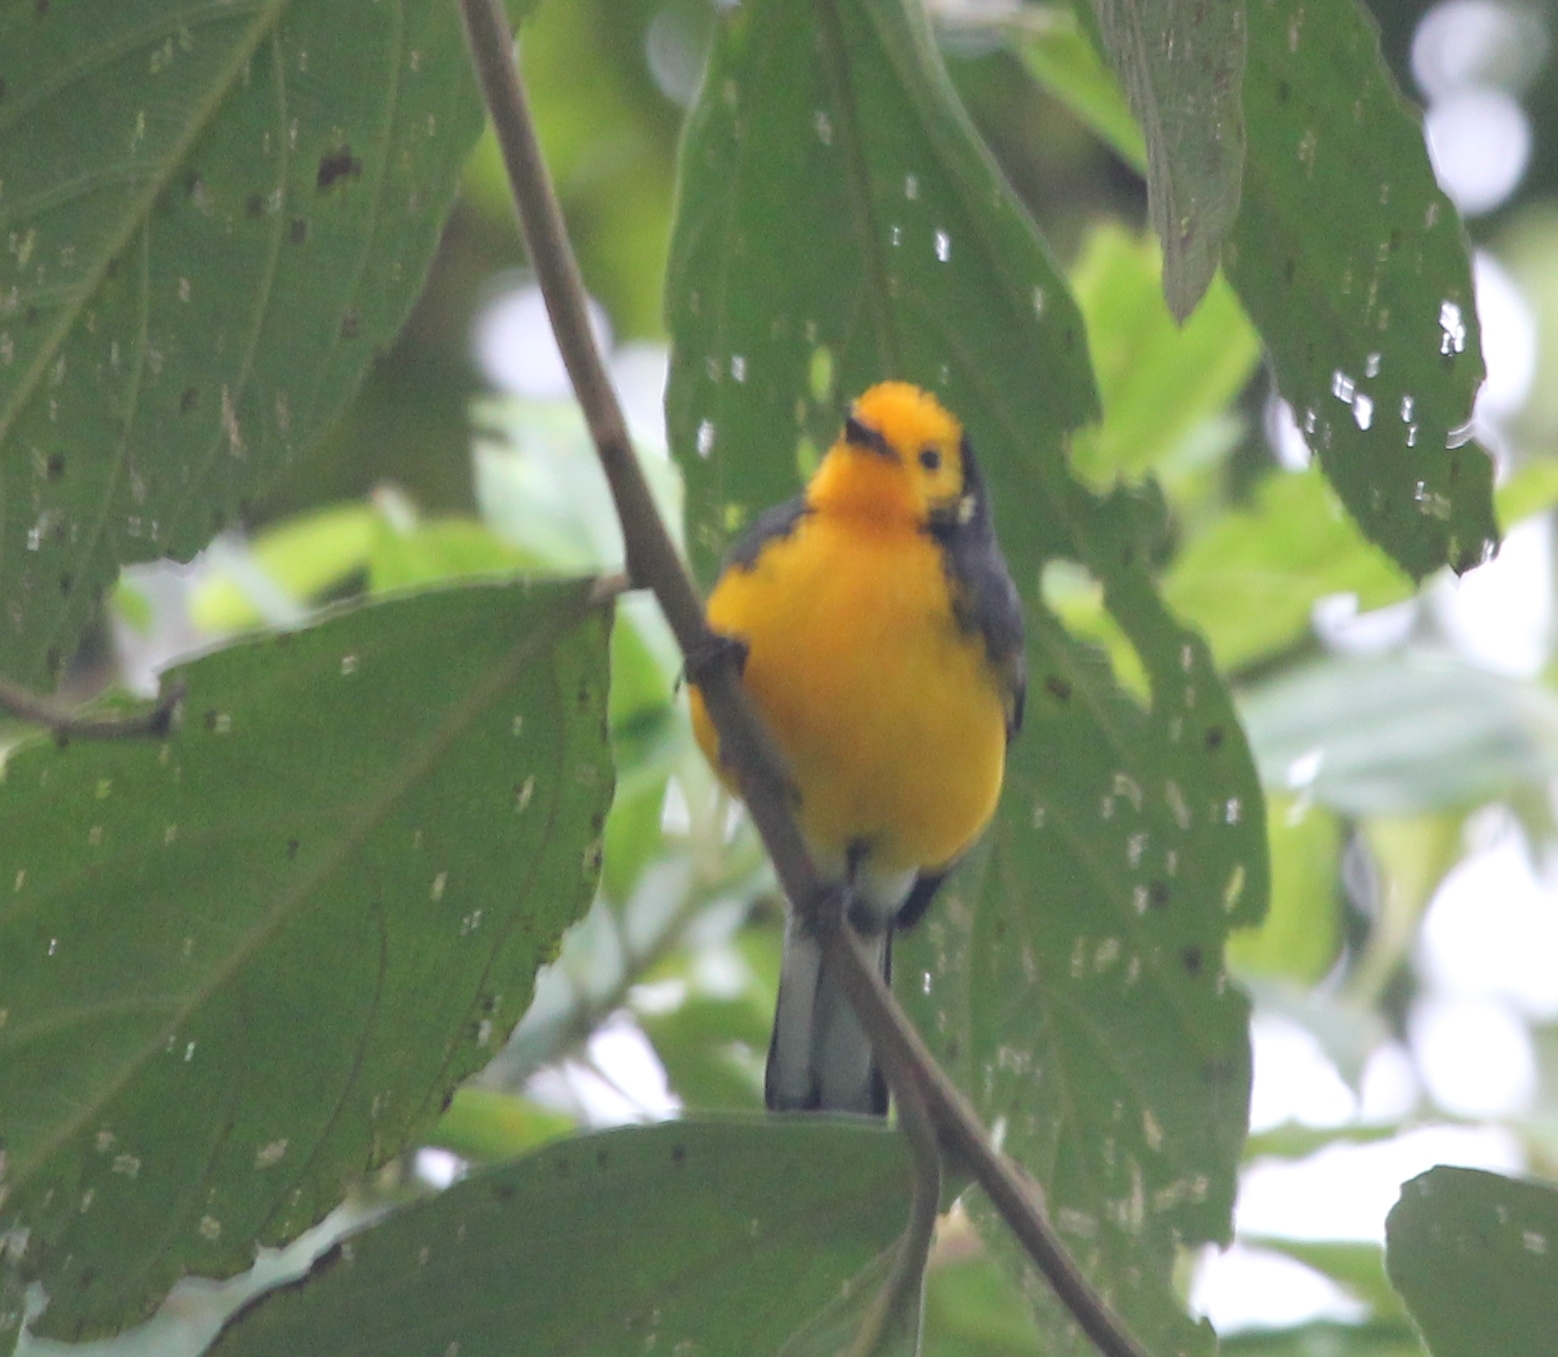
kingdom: Animalia
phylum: Chordata
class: Aves
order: Passeriformes
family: Parulidae
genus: Myioborus
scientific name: Myioborus ornatus
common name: Golden-fronted whitestart
